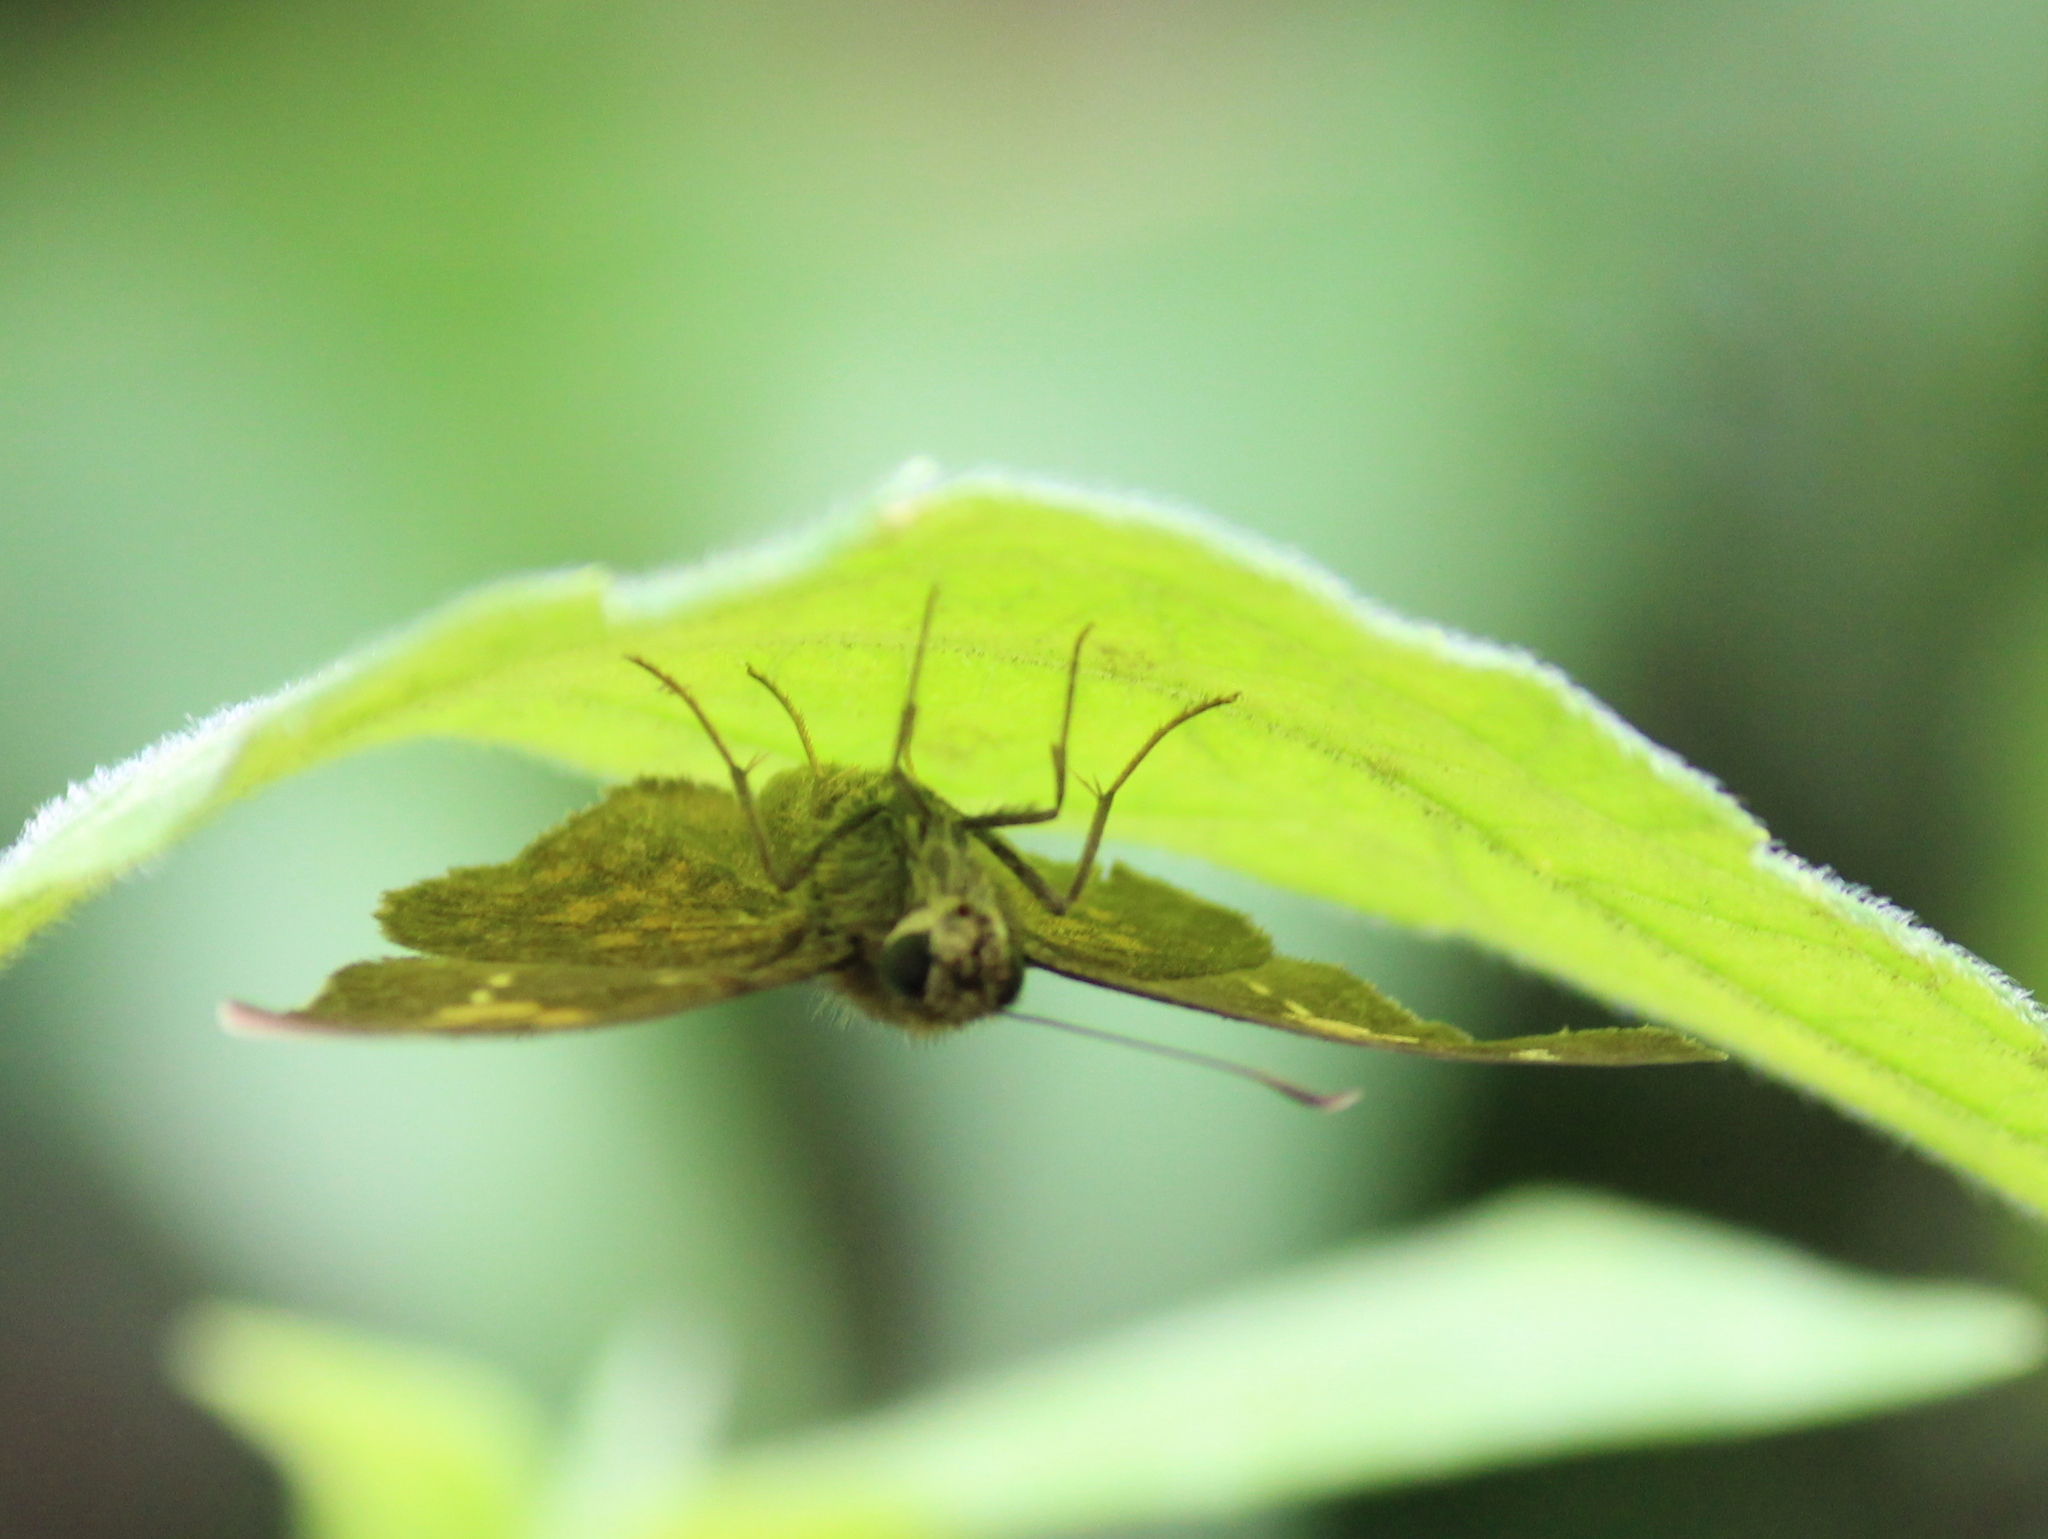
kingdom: Animalia
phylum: Arthropoda
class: Insecta
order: Lepidoptera
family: Hesperiidae
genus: Caprona
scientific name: Caprona ransonnettii
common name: Golden angle
